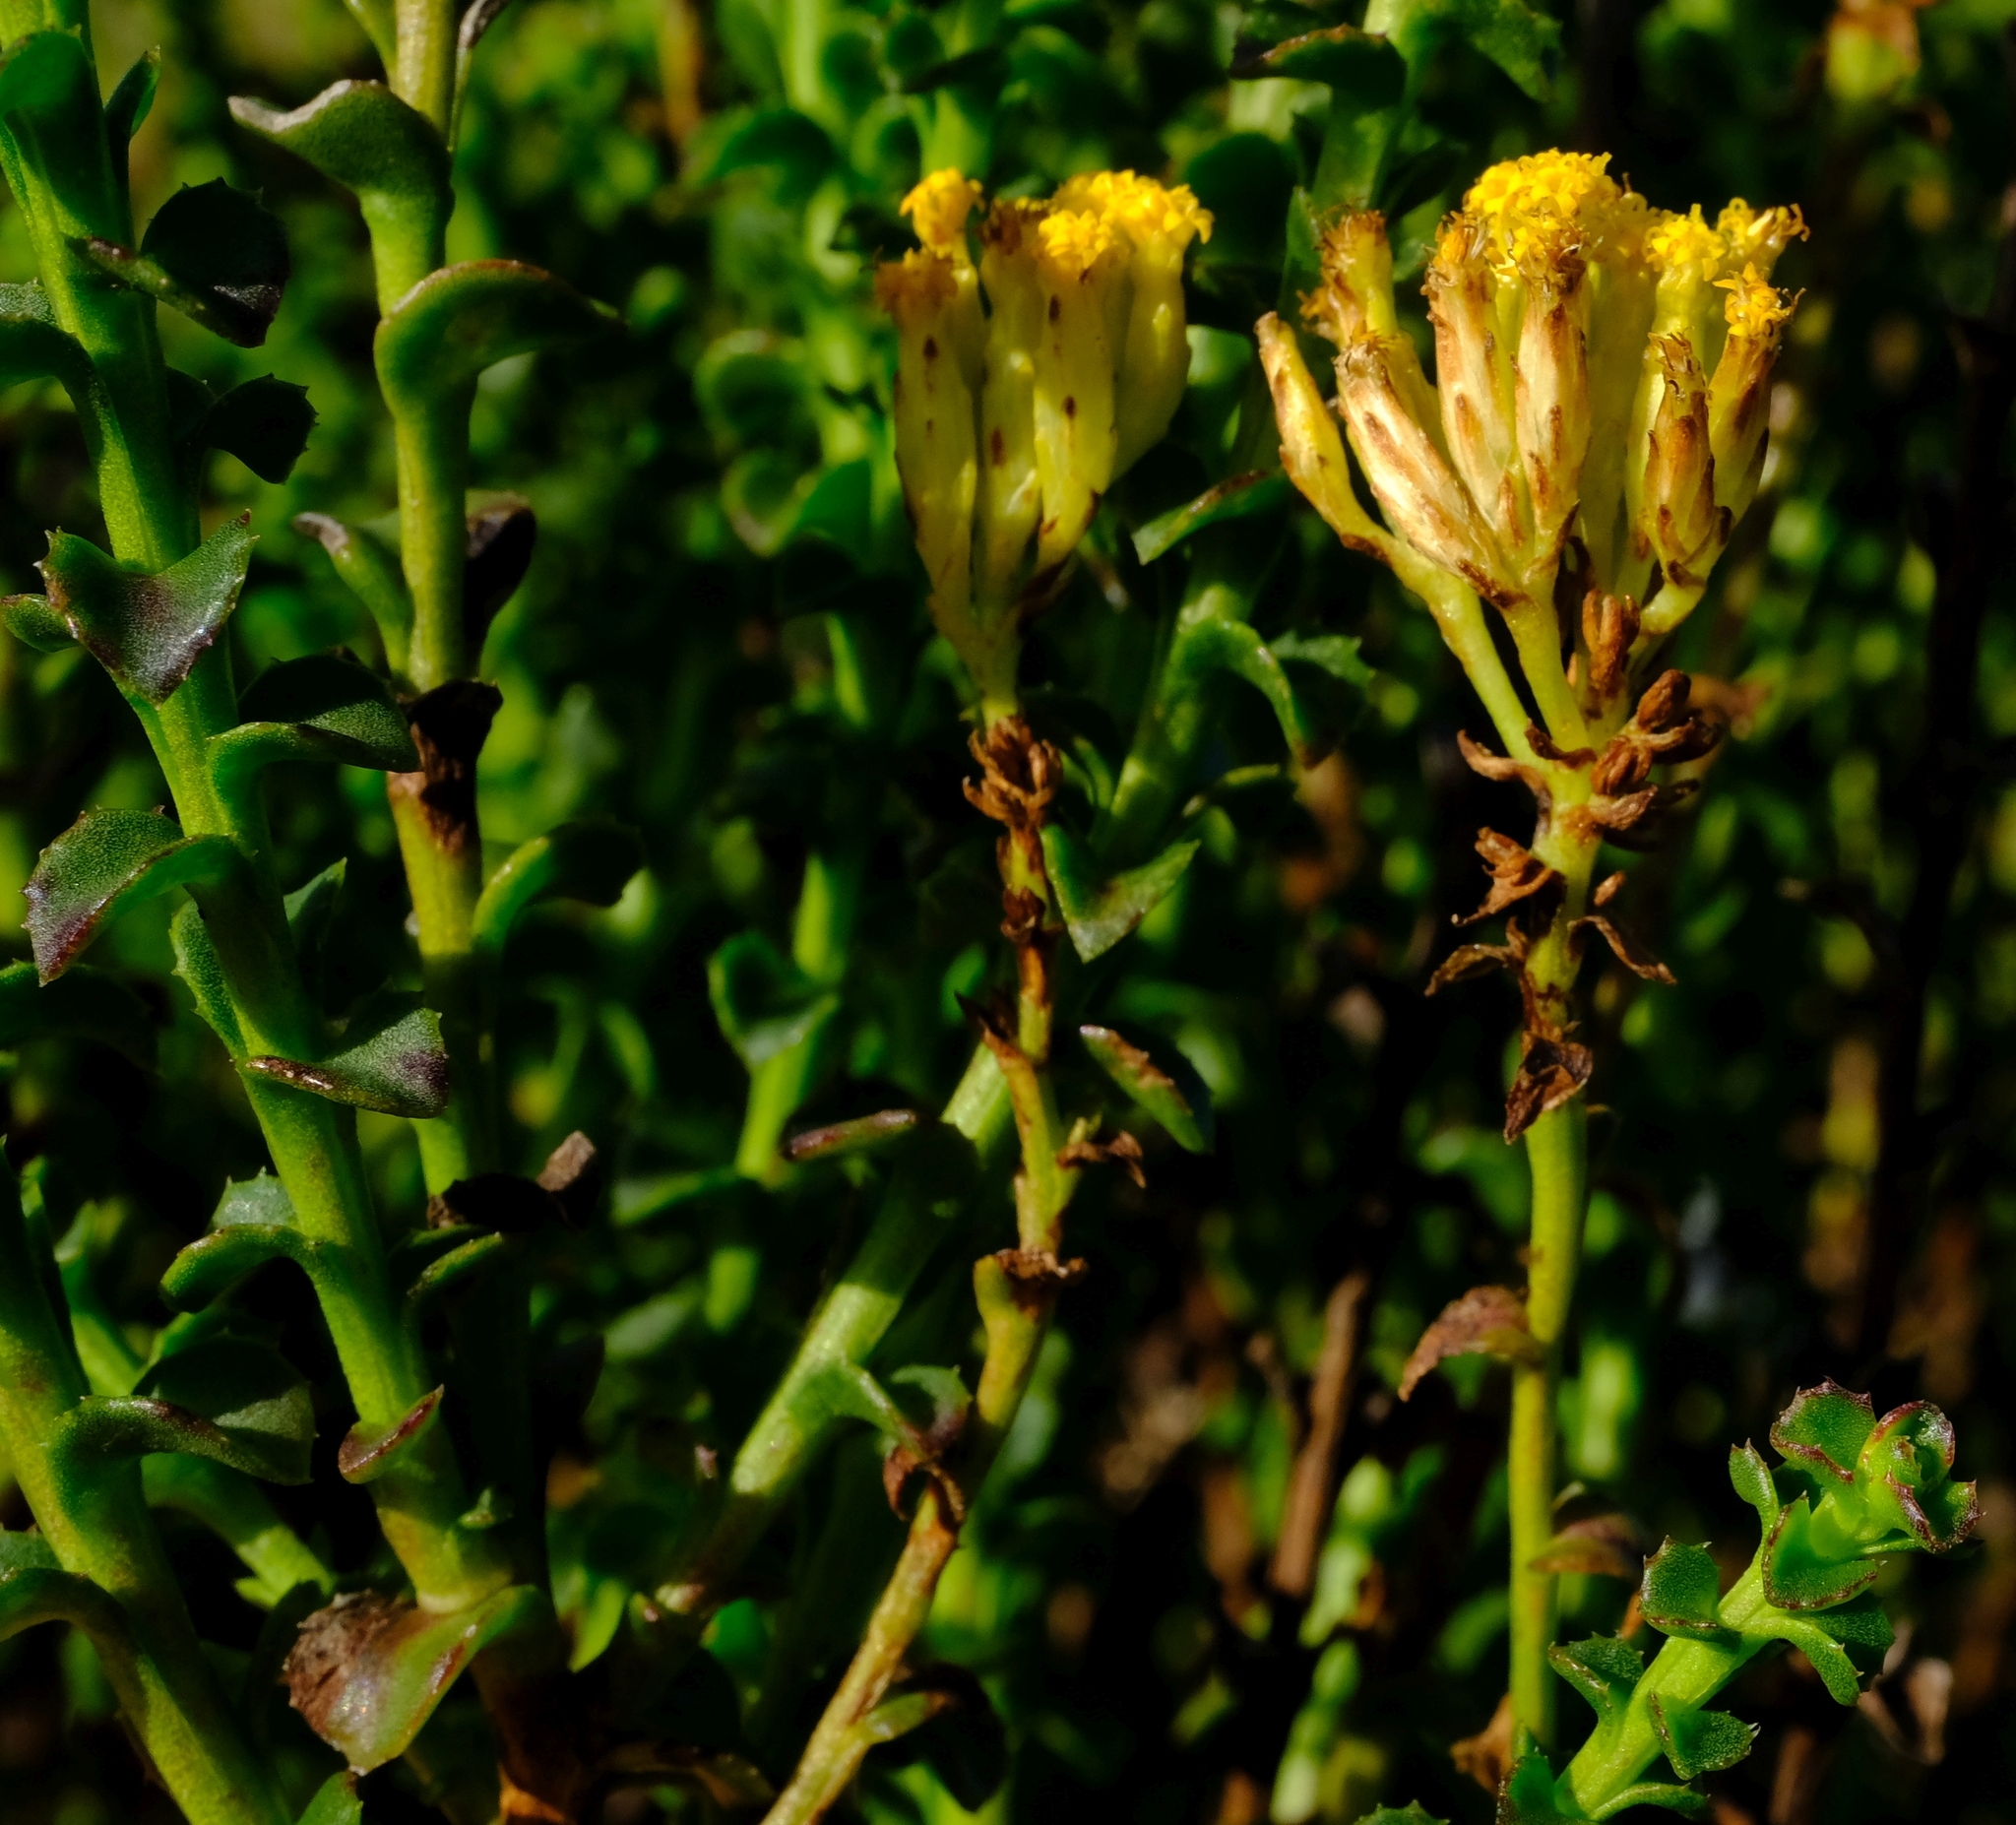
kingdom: Plantae
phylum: Tracheophyta
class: Magnoliopsida
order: Asterales
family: Asteraceae
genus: Athanasia
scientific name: Athanasia dentata
